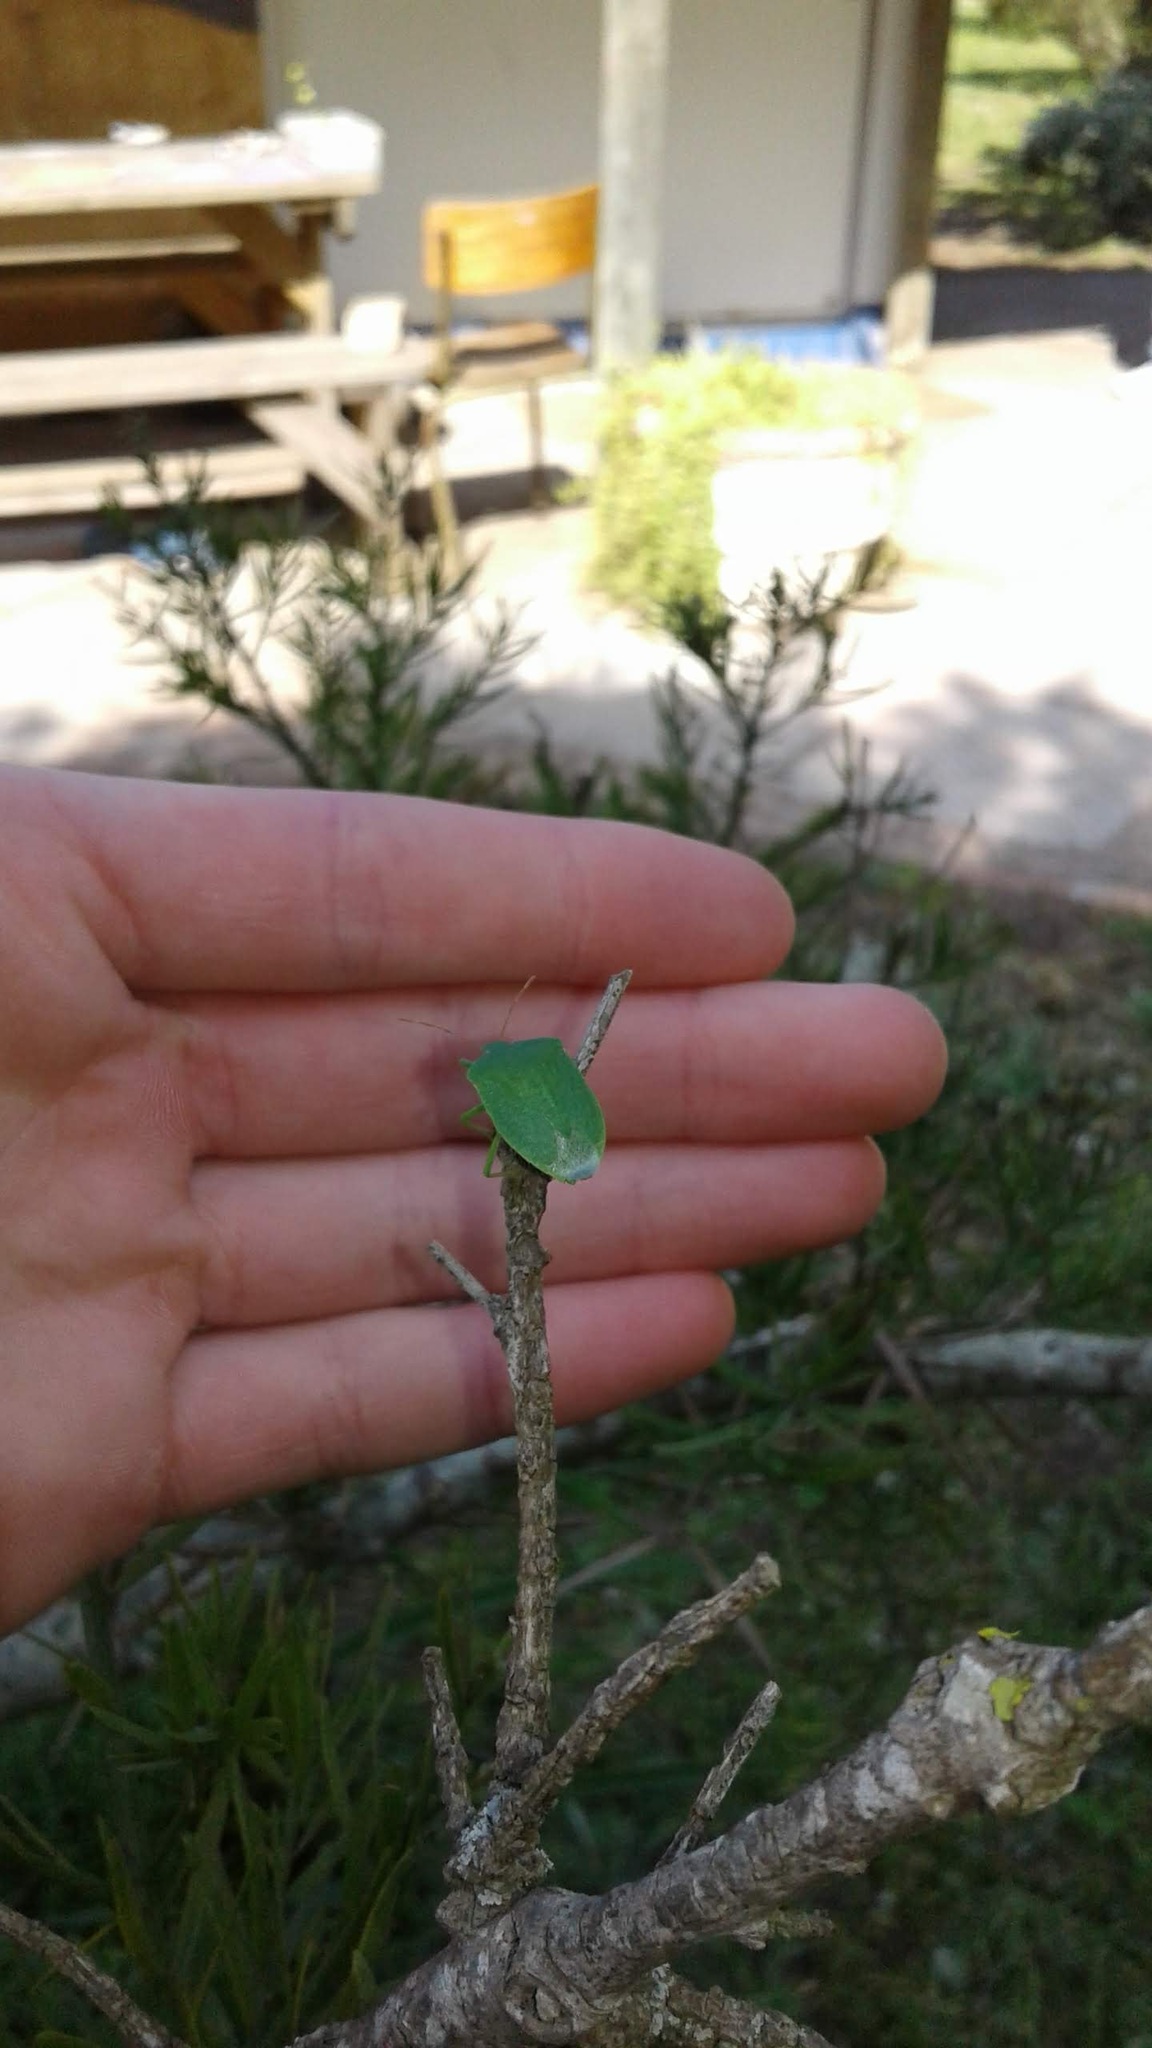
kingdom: Animalia
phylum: Arthropoda
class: Insecta
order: Hemiptera
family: Pentatomidae
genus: Nezara
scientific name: Nezara viridula
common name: Southern green stink bug
